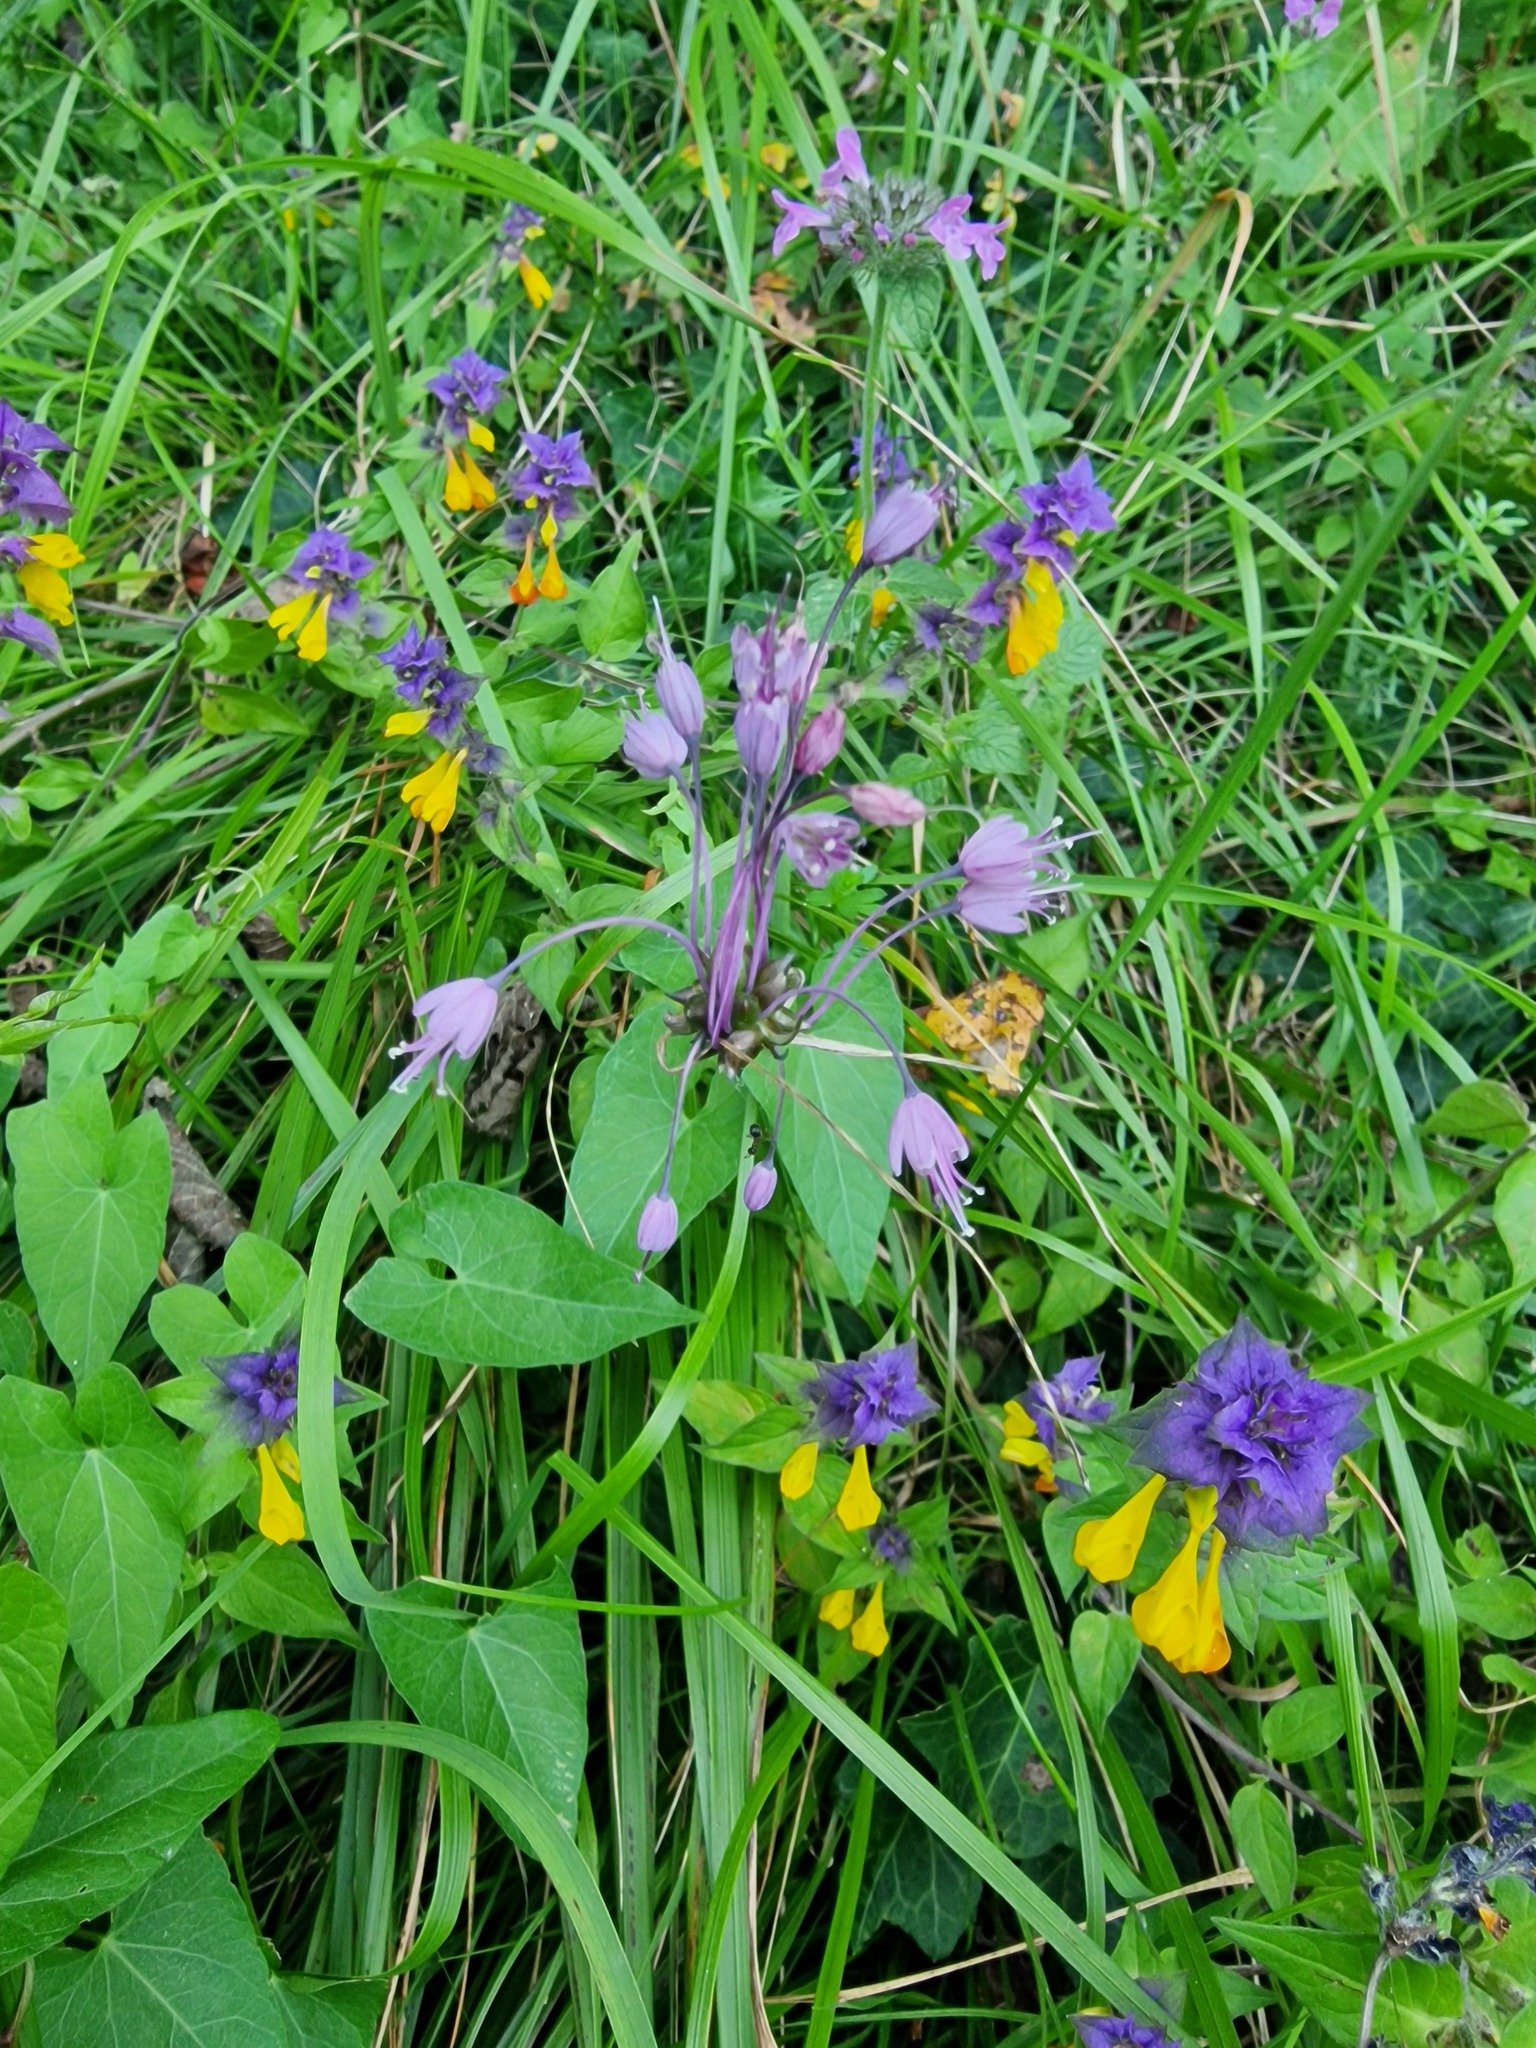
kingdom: Plantae
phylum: Tracheophyta
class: Liliopsida
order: Asparagales
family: Amaryllidaceae
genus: Allium
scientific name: Allium carinatum
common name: Keeled garlic
